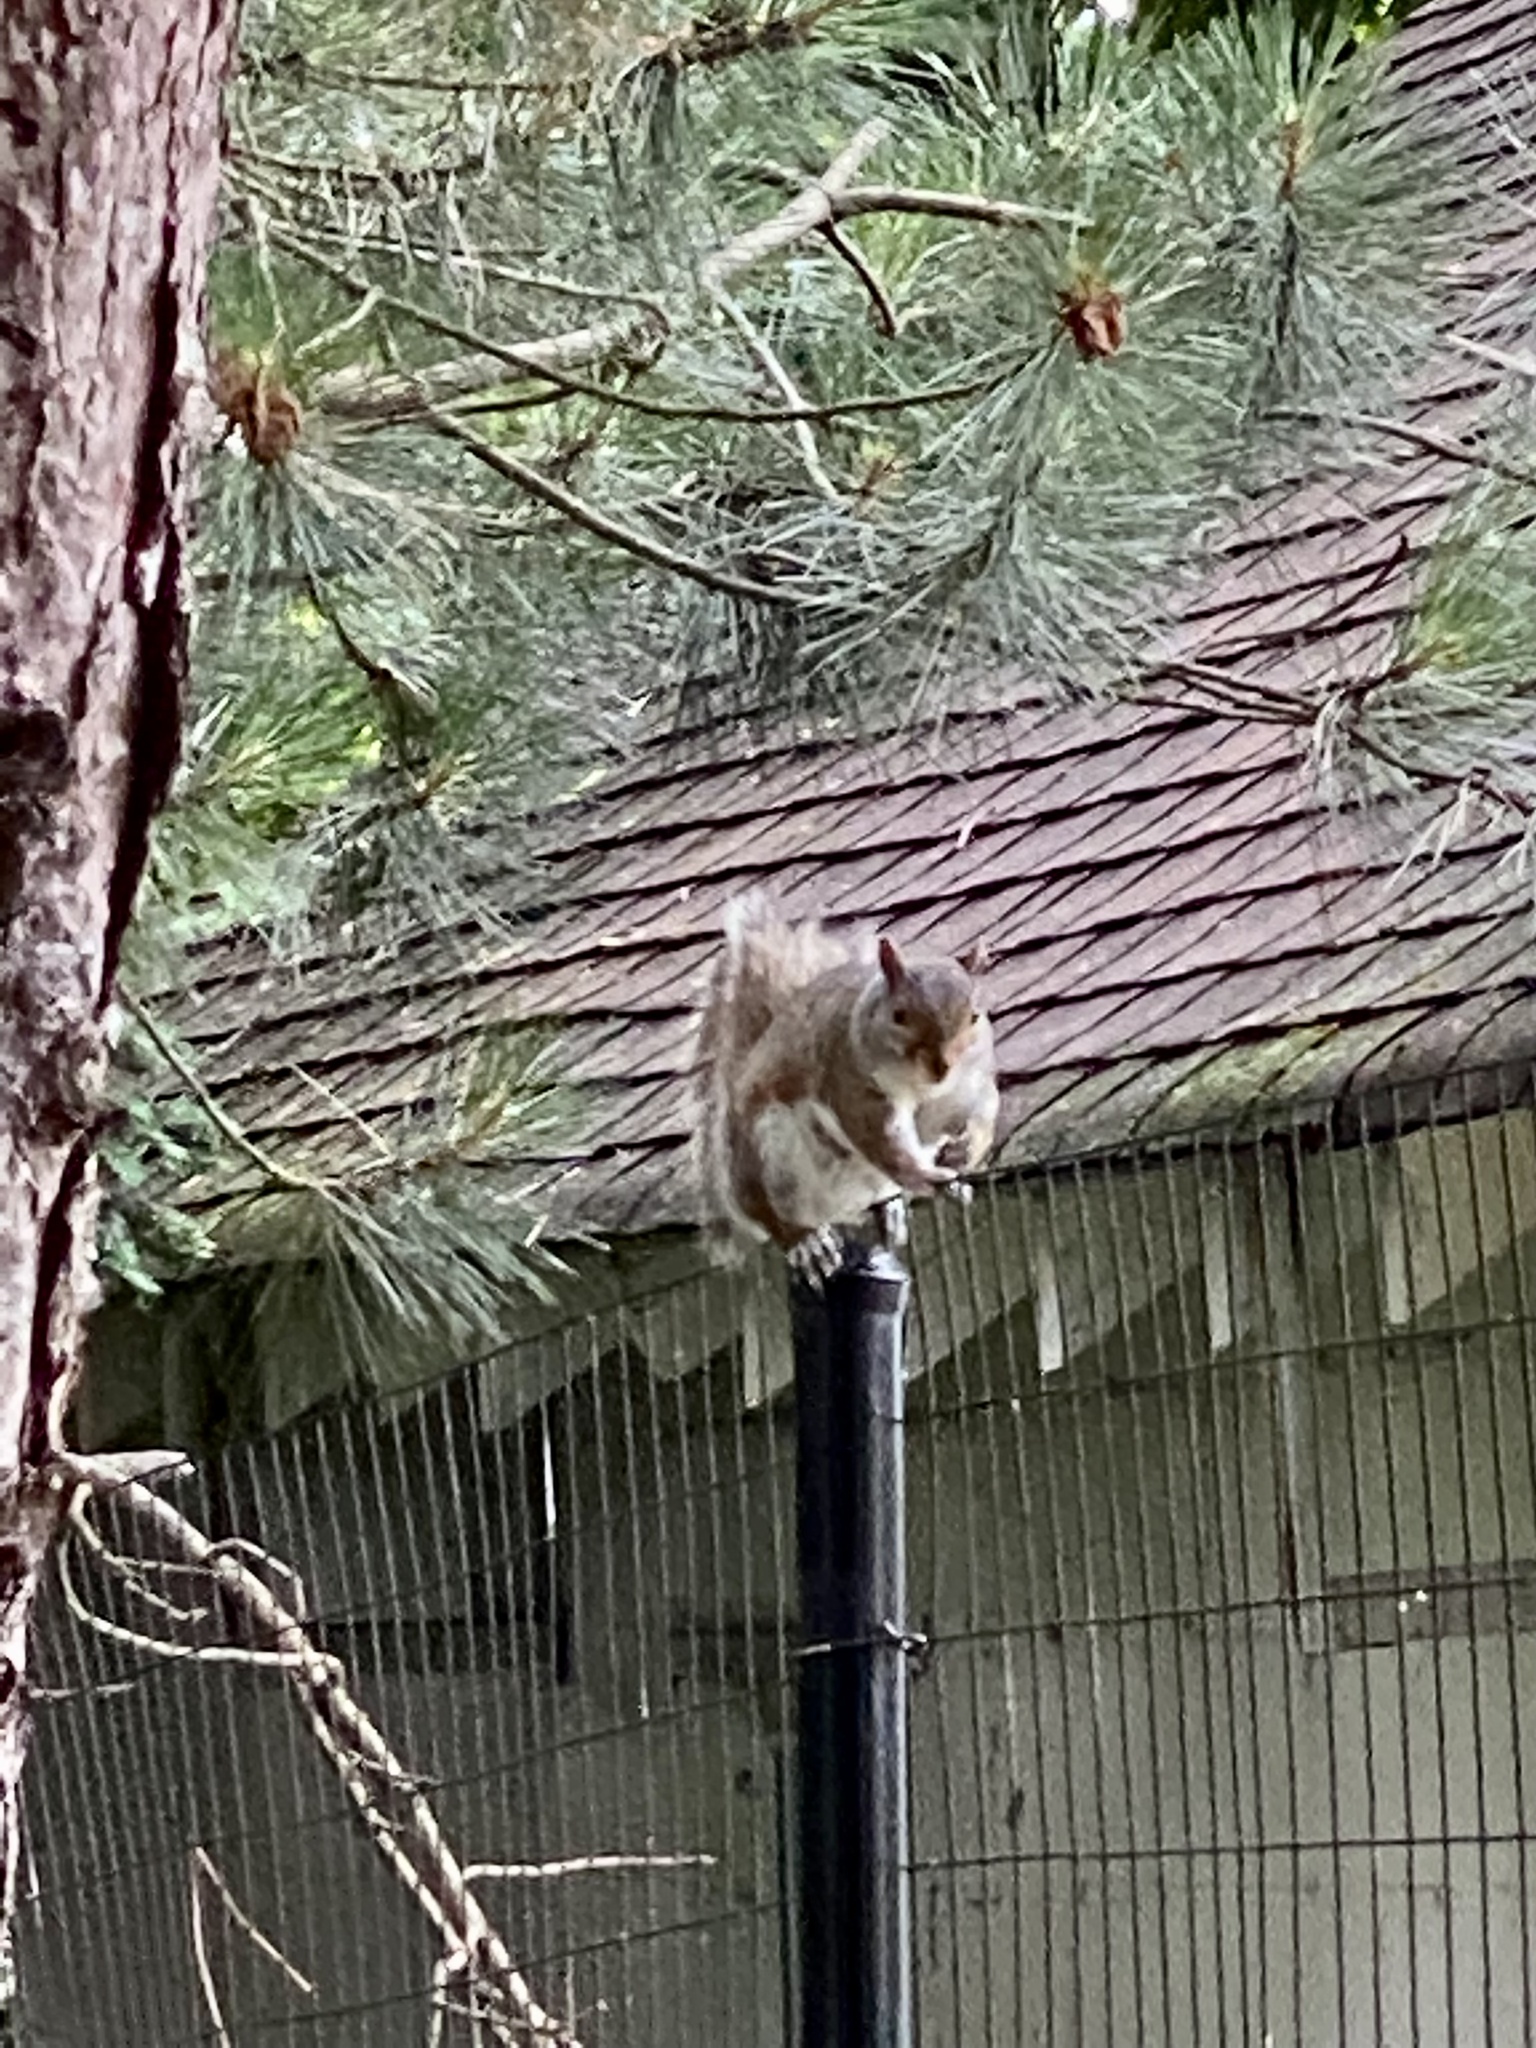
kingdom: Animalia
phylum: Chordata
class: Mammalia
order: Rodentia
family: Sciuridae
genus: Sciurus
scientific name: Sciurus carolinensis
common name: Eastern gray squirrel
